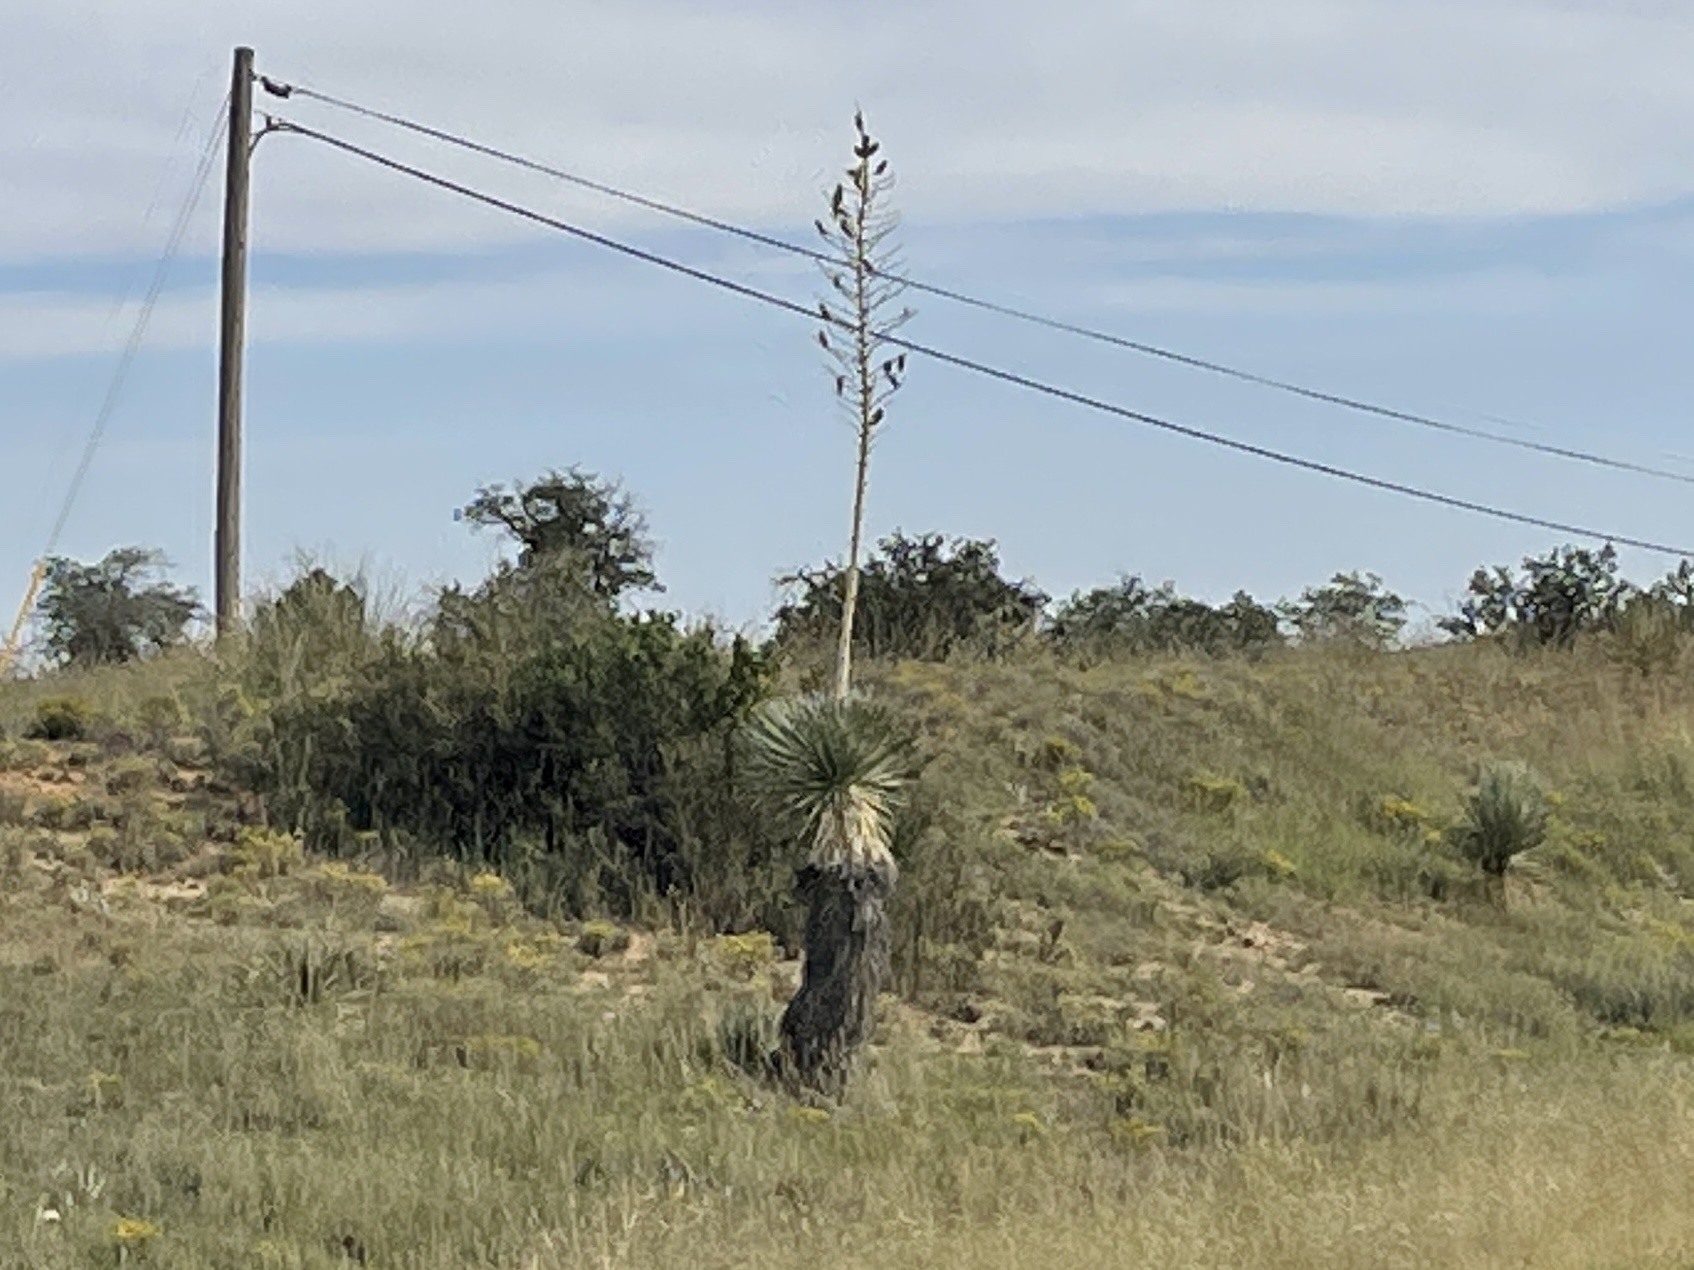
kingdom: Plantae
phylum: Tracheophyta
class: Liliopsida
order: Asparagales
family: Asparagaceae
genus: Yucca
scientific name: Yucca elata
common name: Palmella
